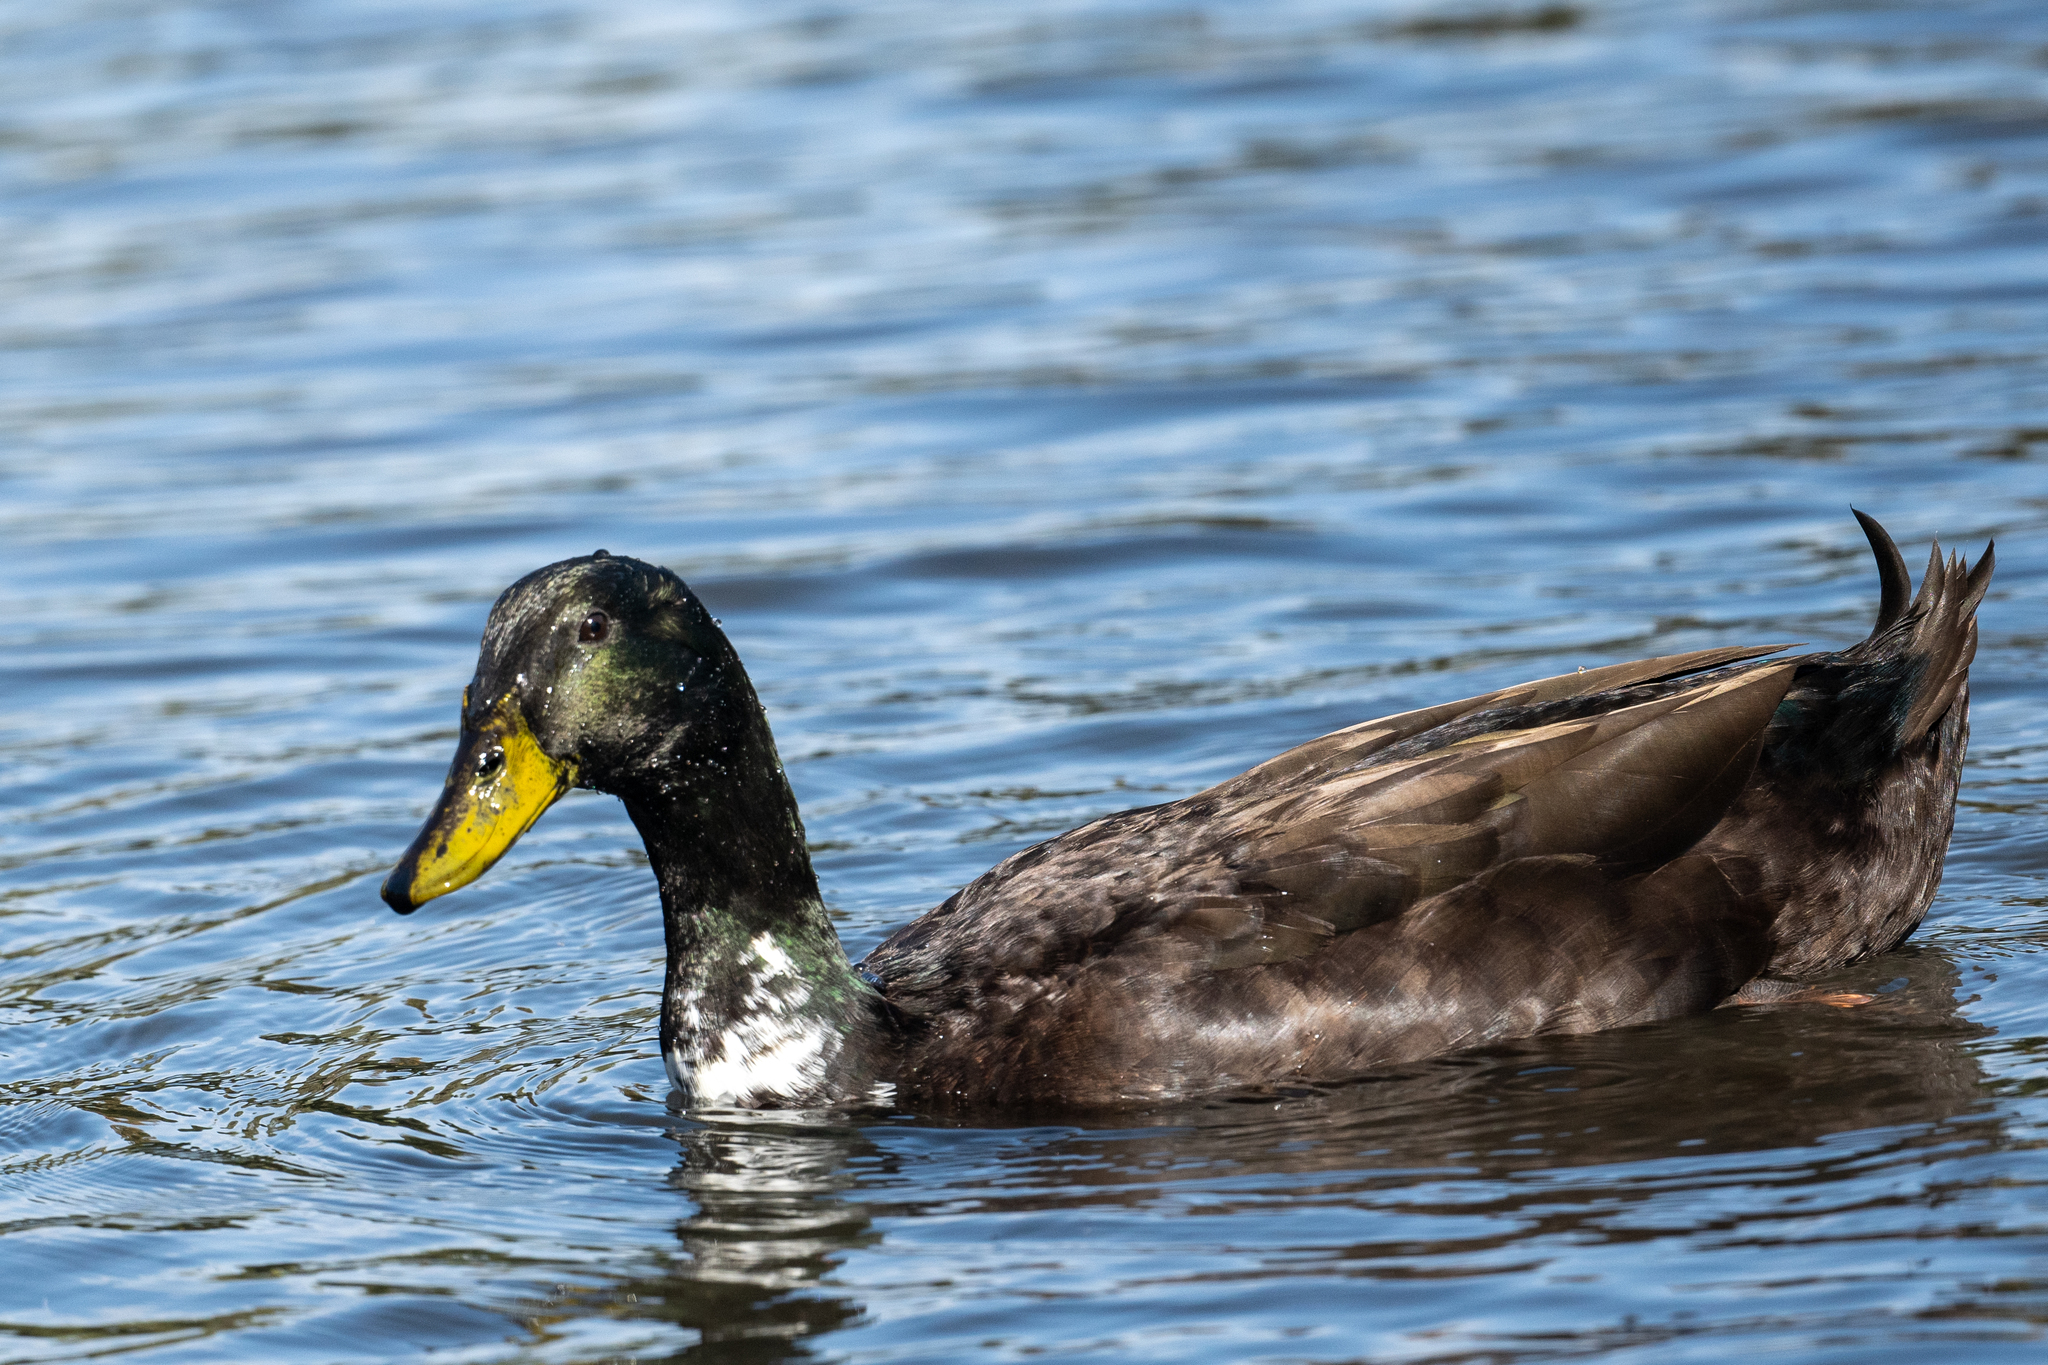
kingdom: Animalia
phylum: Chordata
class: Aves
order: Anseriformes
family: Anatidae
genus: Anas
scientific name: Anas platyrhynchos
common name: Mallard
